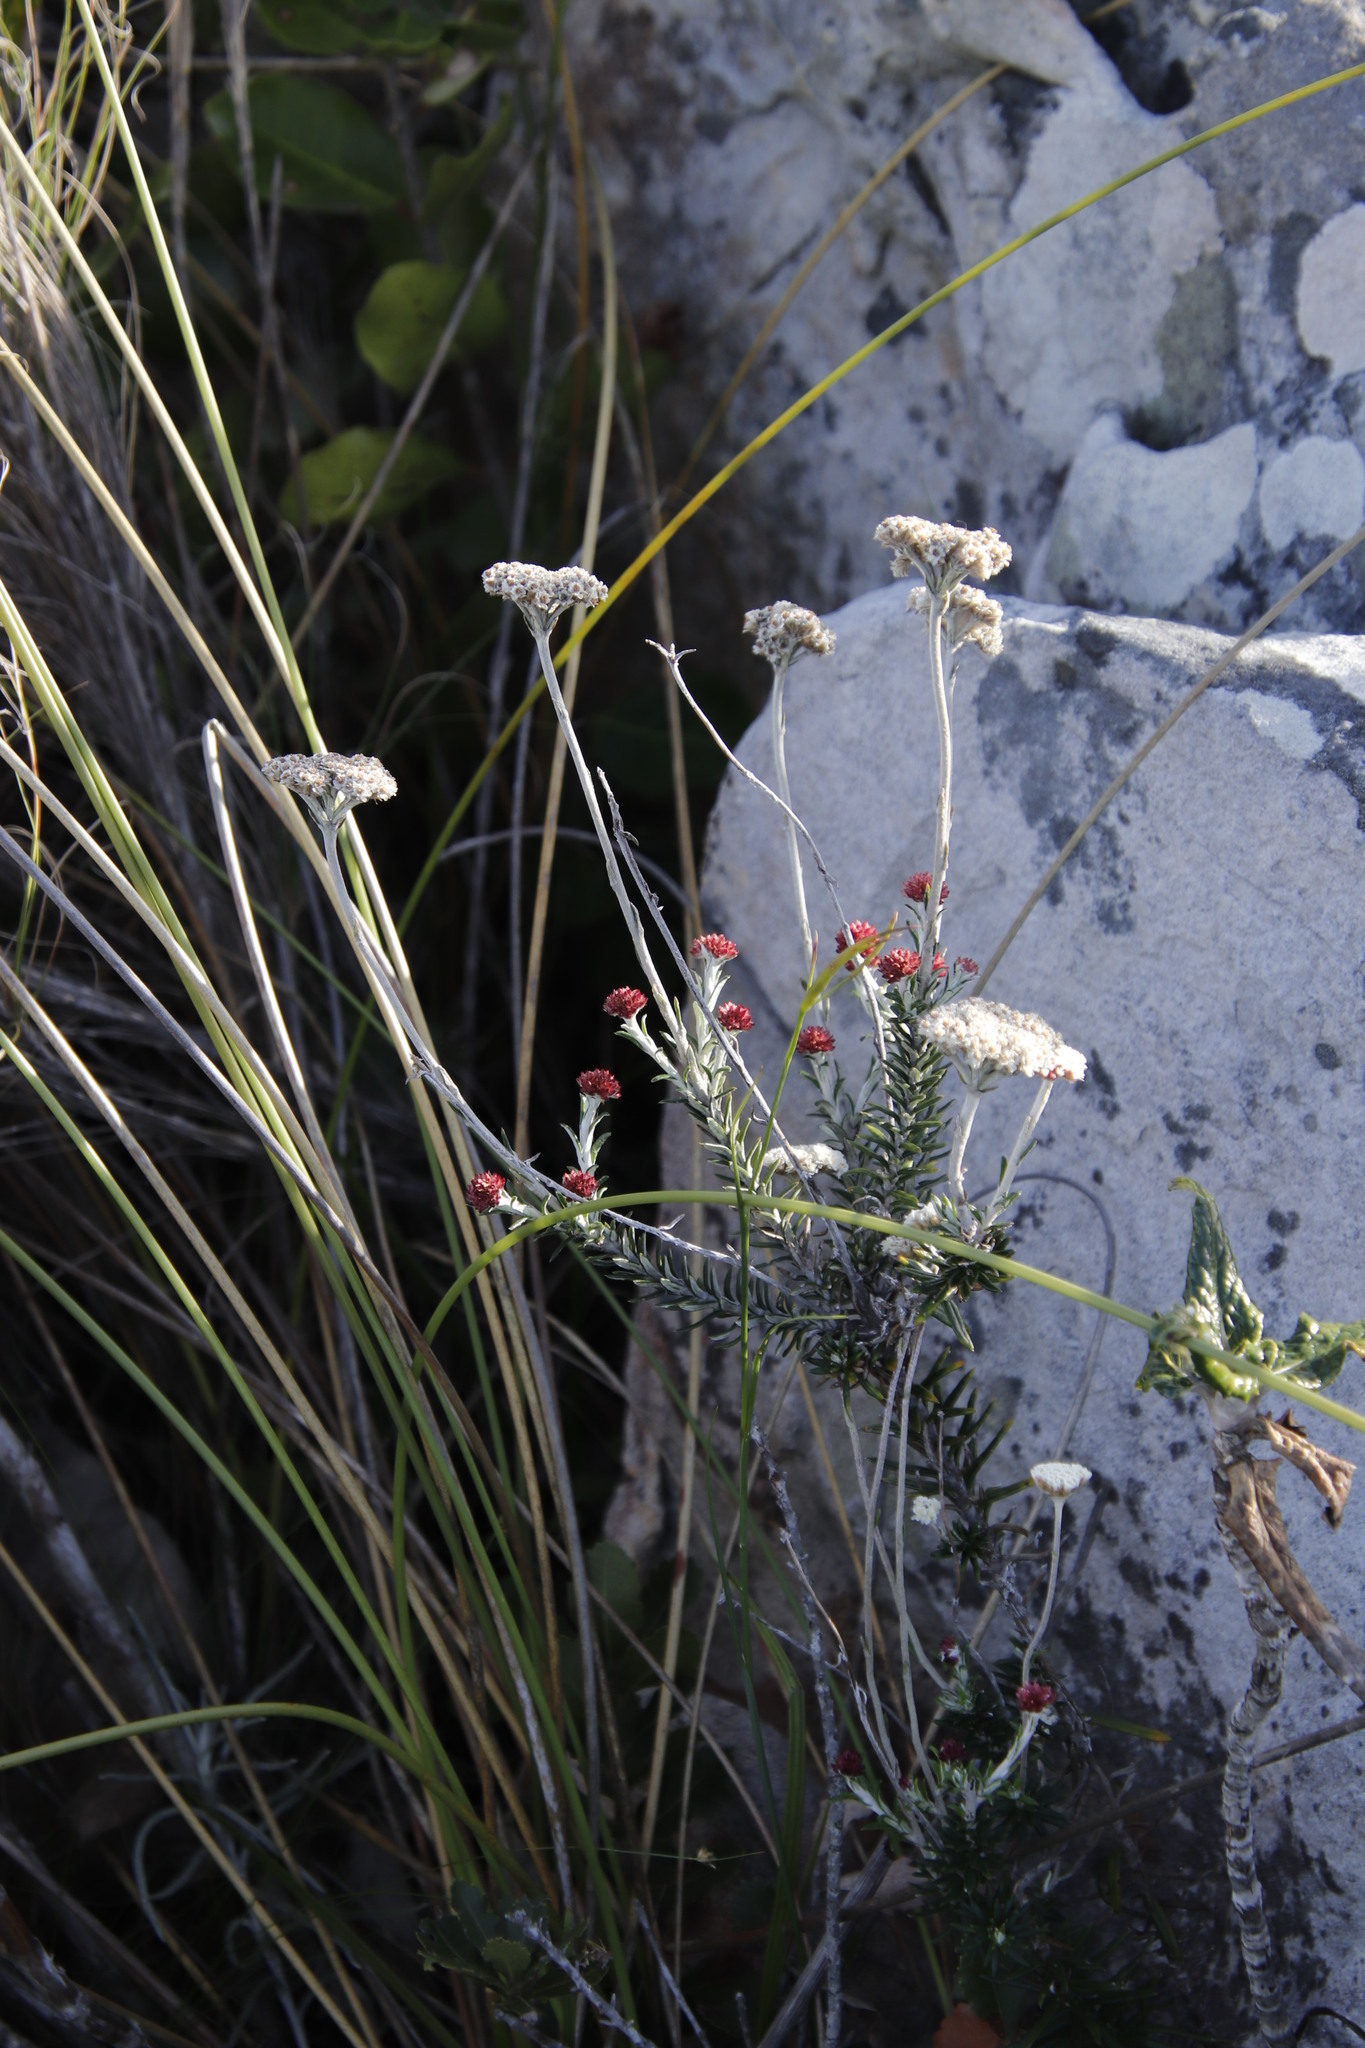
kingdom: Plantae
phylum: Tracheophyta
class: Magnoliopsida
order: Asterales
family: Asteraceae
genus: Anaxeton
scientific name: Anaxeton laeve
